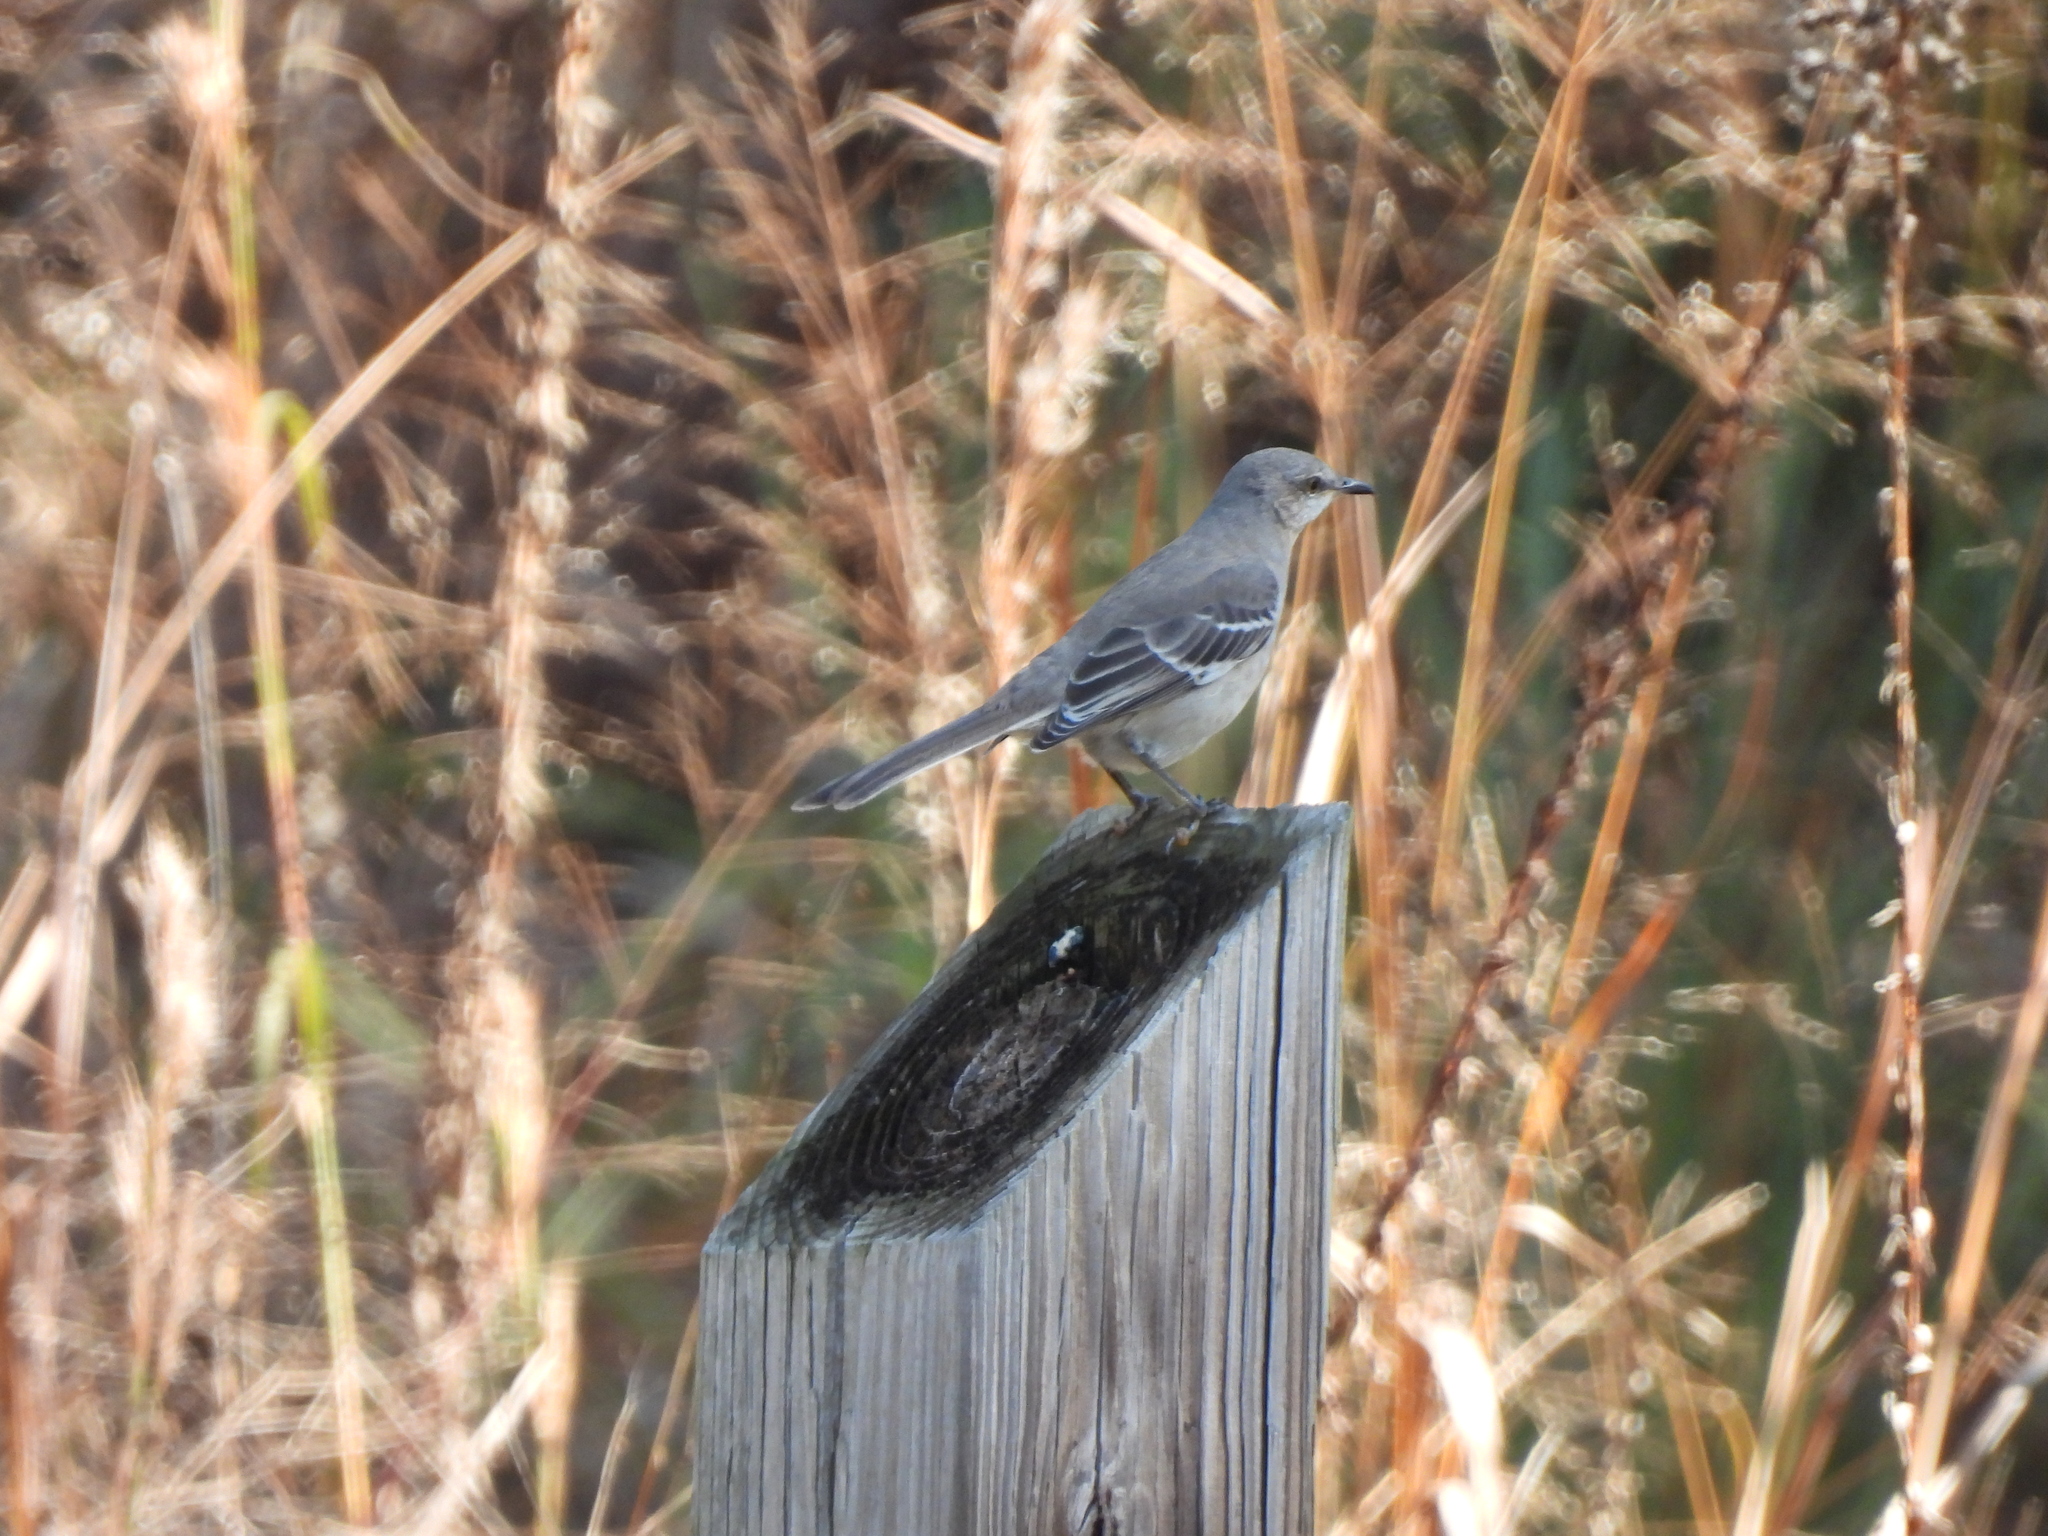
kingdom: Animalia
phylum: Chordata
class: Aves
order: Passeriformes
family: Mimidae
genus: Mimus
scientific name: Mimus polyglottos
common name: Northern mockingbird
